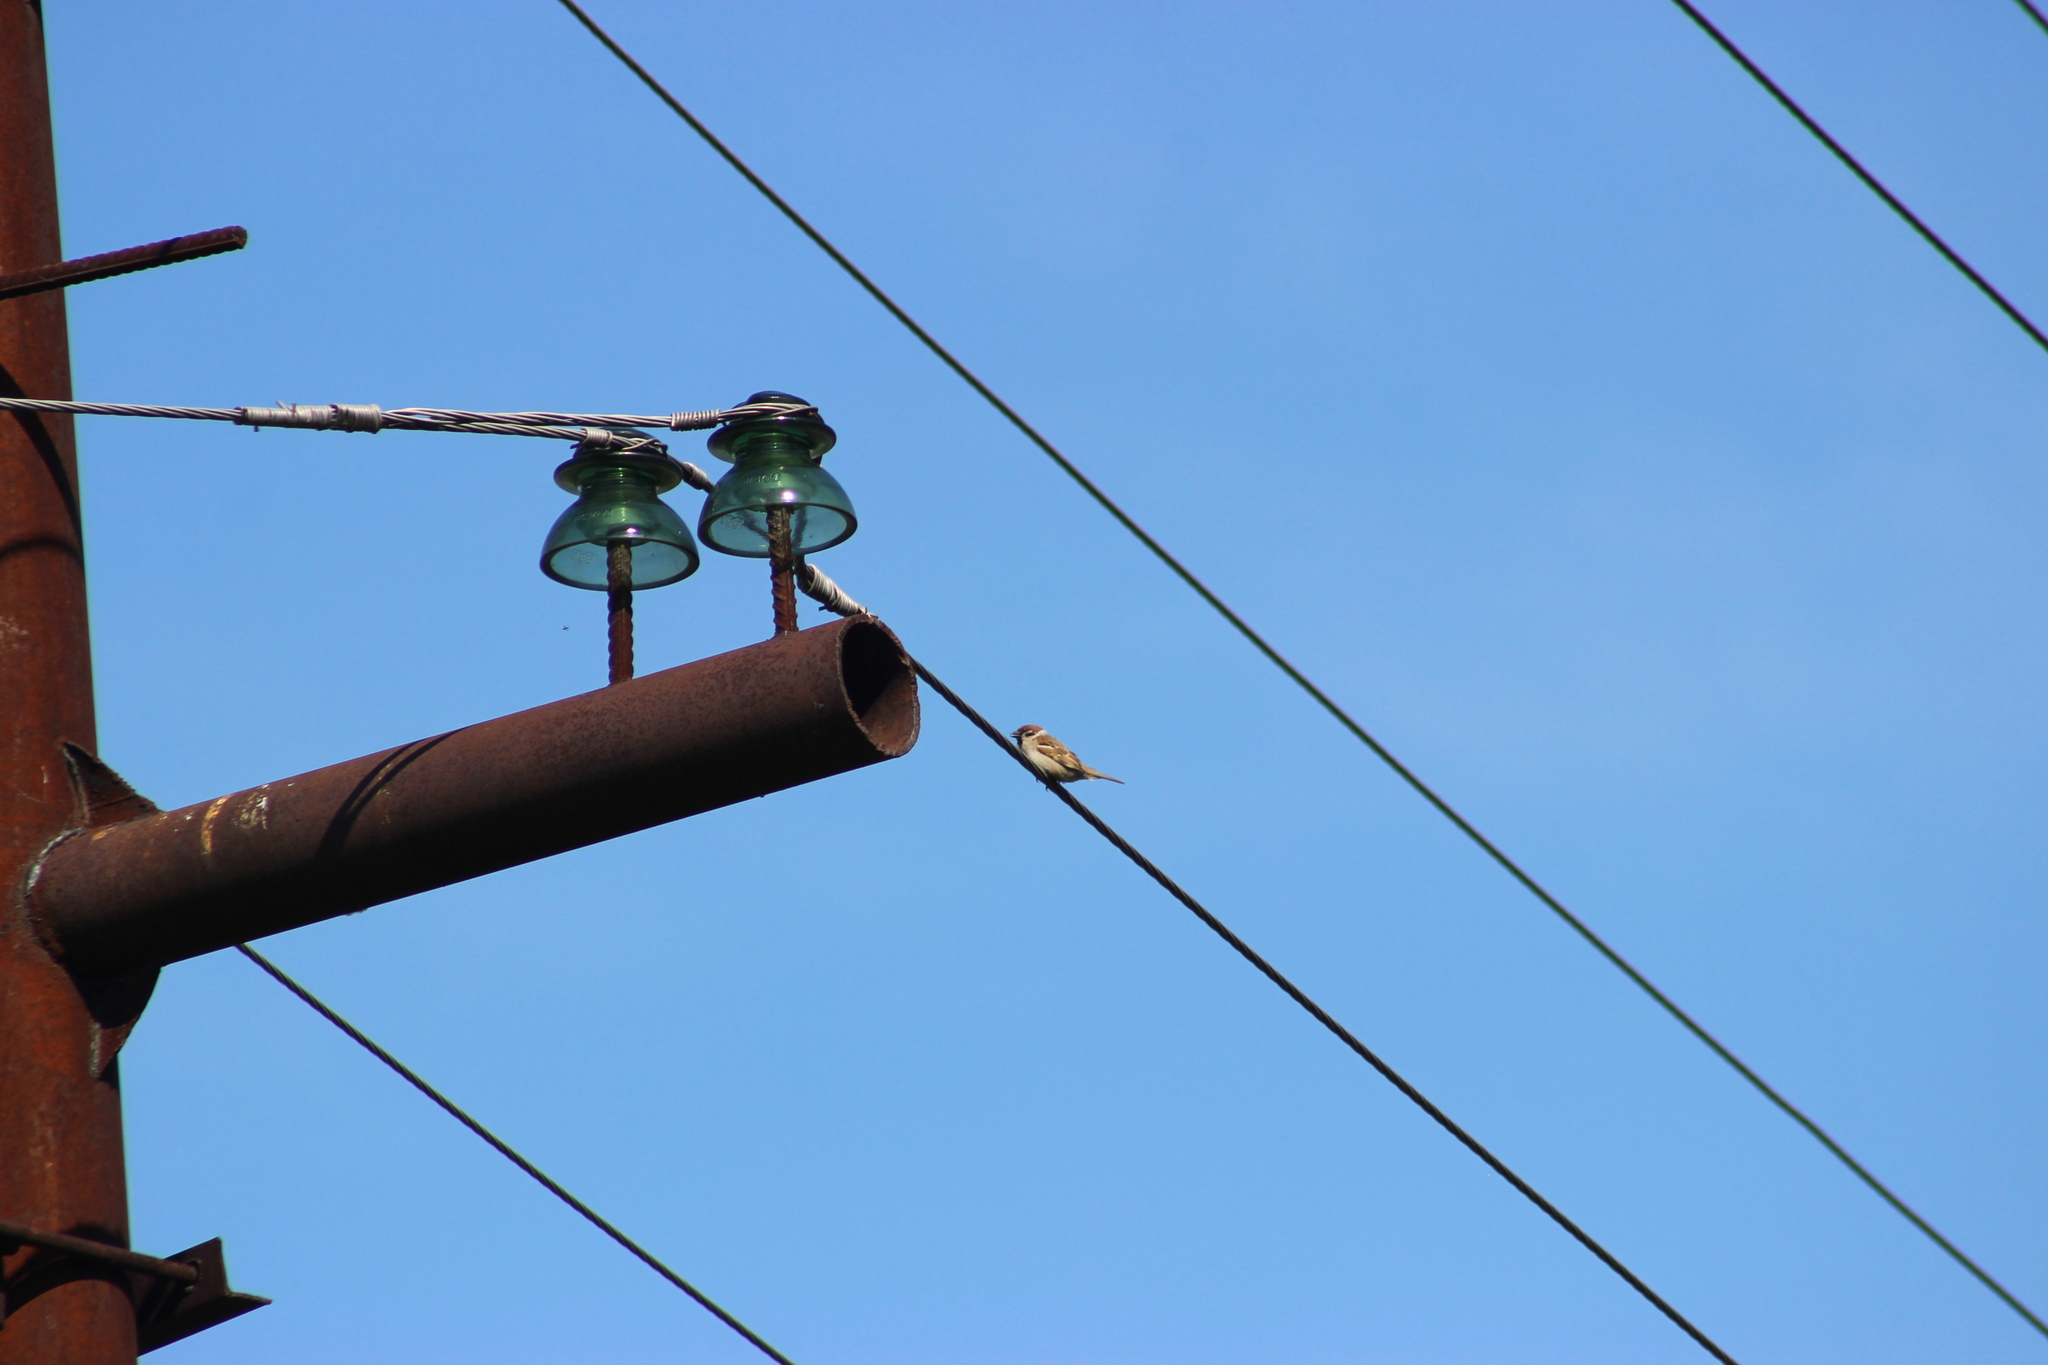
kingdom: Animalia
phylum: Chordata
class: Aves
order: Passeriformes
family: Passeridae
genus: Passer
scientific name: Passer montanus
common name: Eurasian tree sparrow
